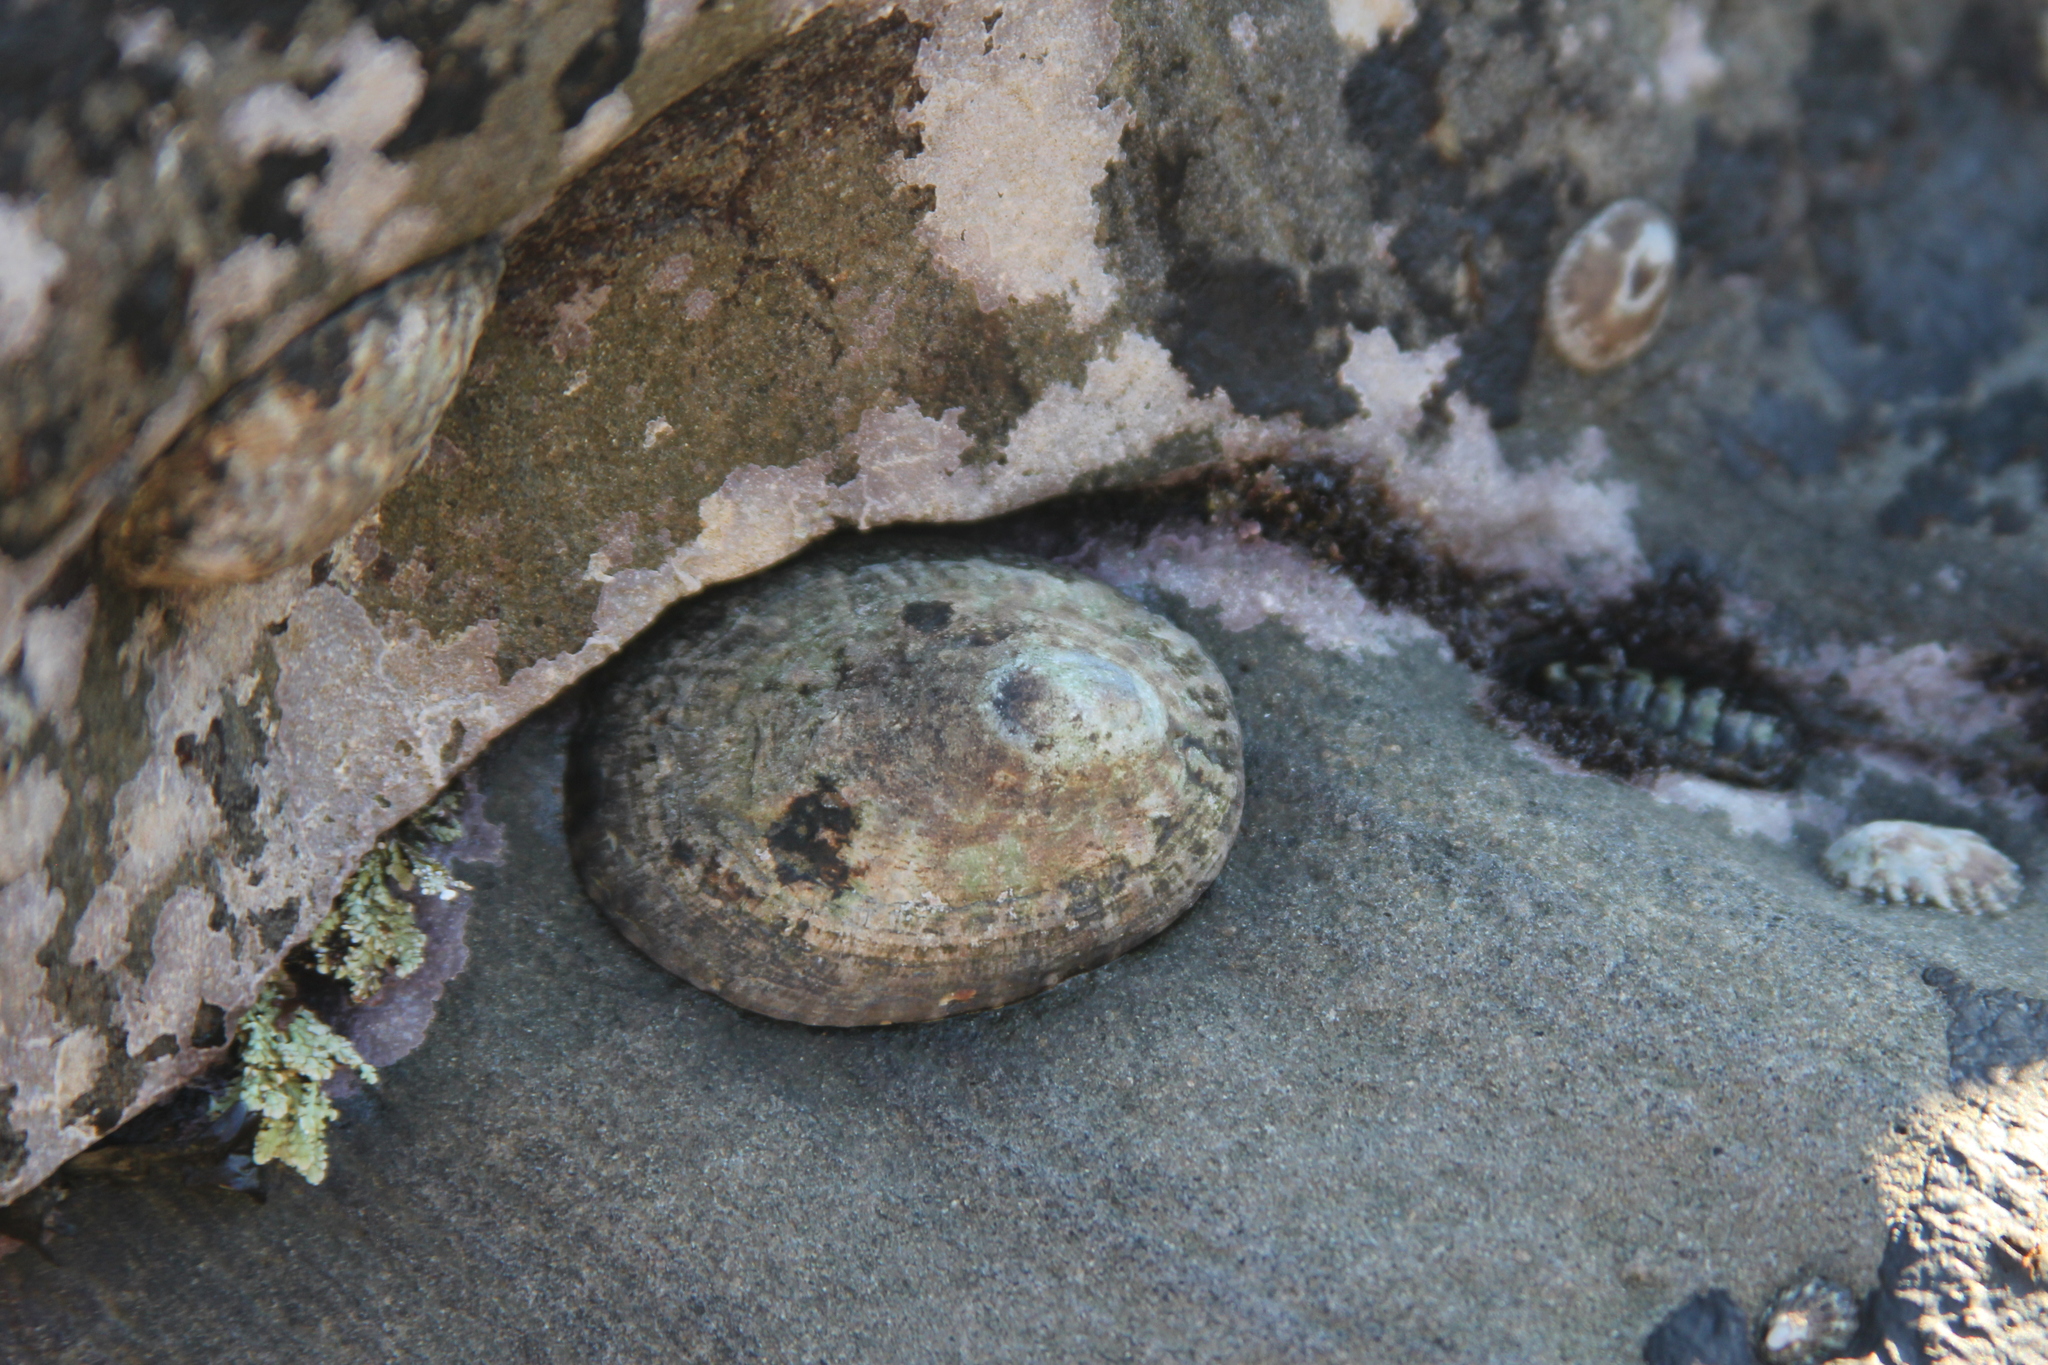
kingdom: Animalia
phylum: Mollusca
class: Gastropoda
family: Lottiidae
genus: Lottia
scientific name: Lottia gigantea
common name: Owl limpet
